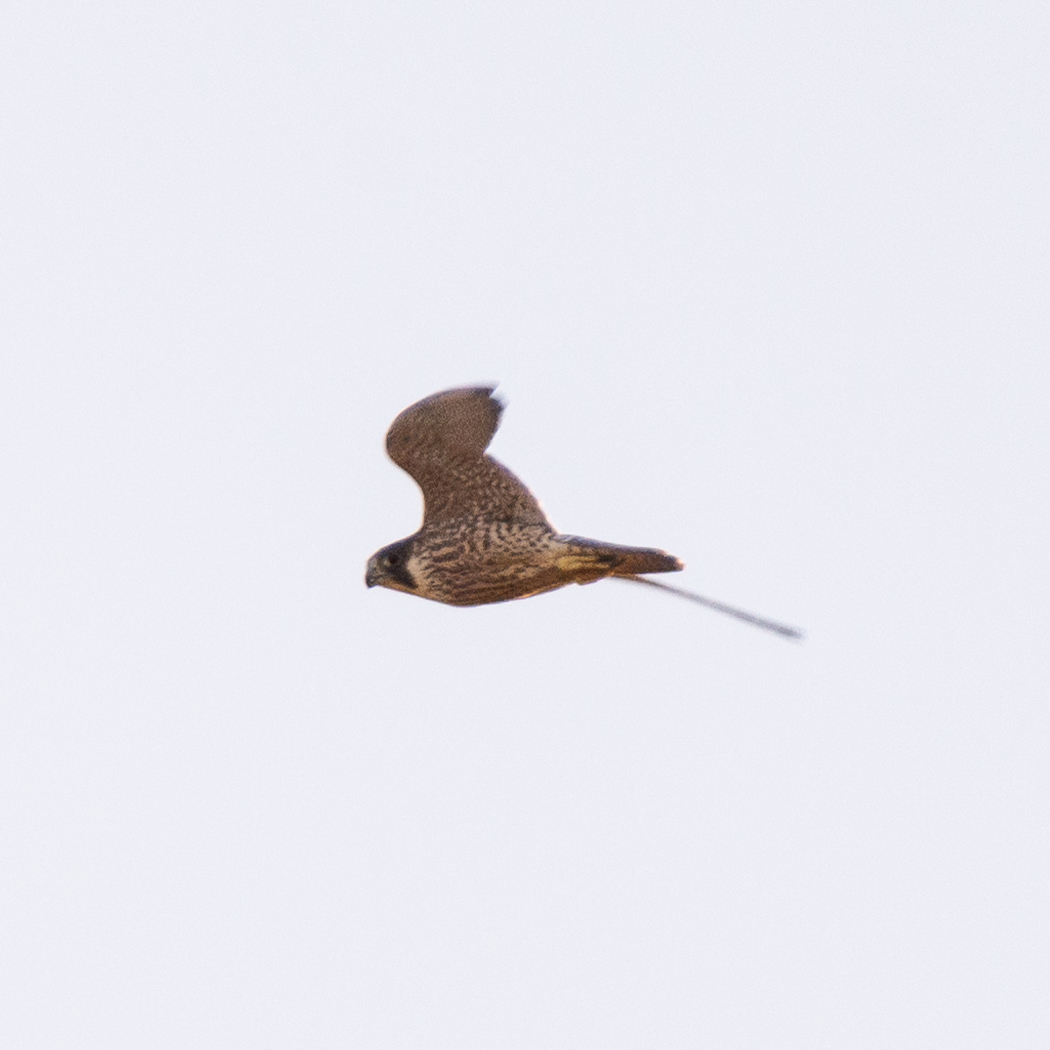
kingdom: Animalia
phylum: Chordata
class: Aves
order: Falconiformes
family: Falconidae
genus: Falco
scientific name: Falco peregrinus
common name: Peregrine falcon
